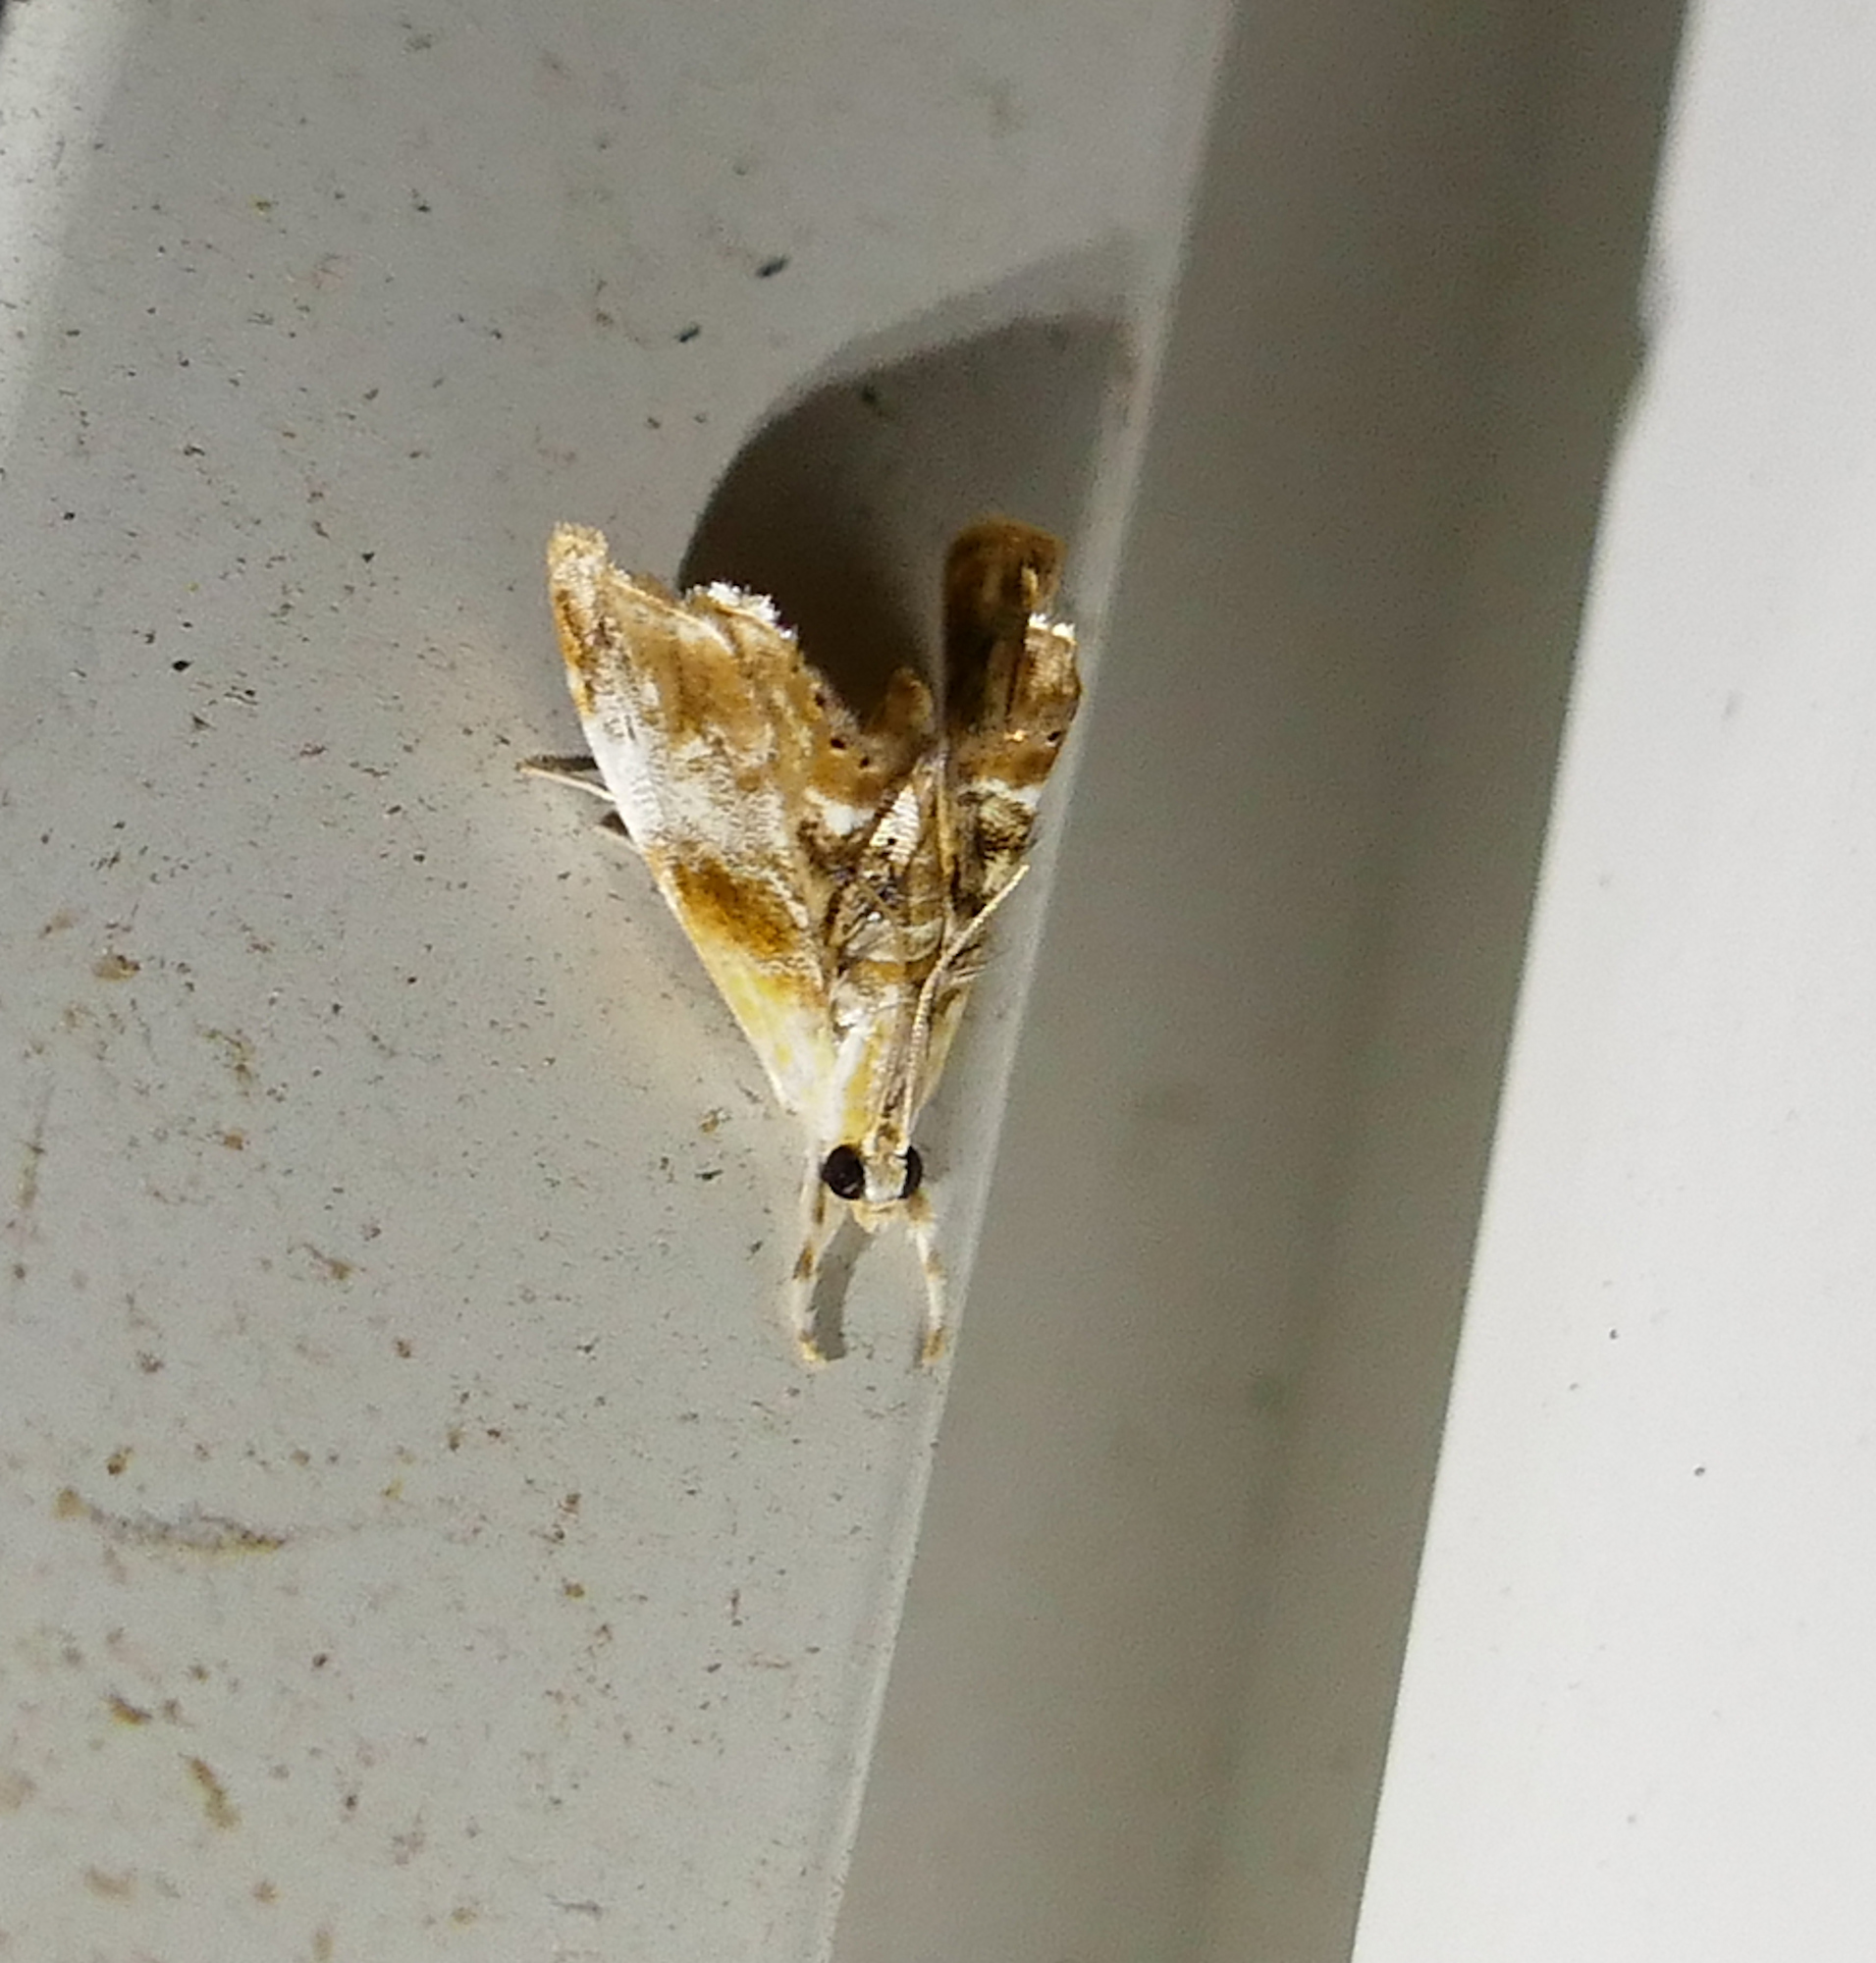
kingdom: Animalia
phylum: Arthropoda
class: Insecta
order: Lepidoptera
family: Crambidae
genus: Dicymolomia
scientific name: Dicymolomia julianalis
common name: Julia's dicymolomia moth
